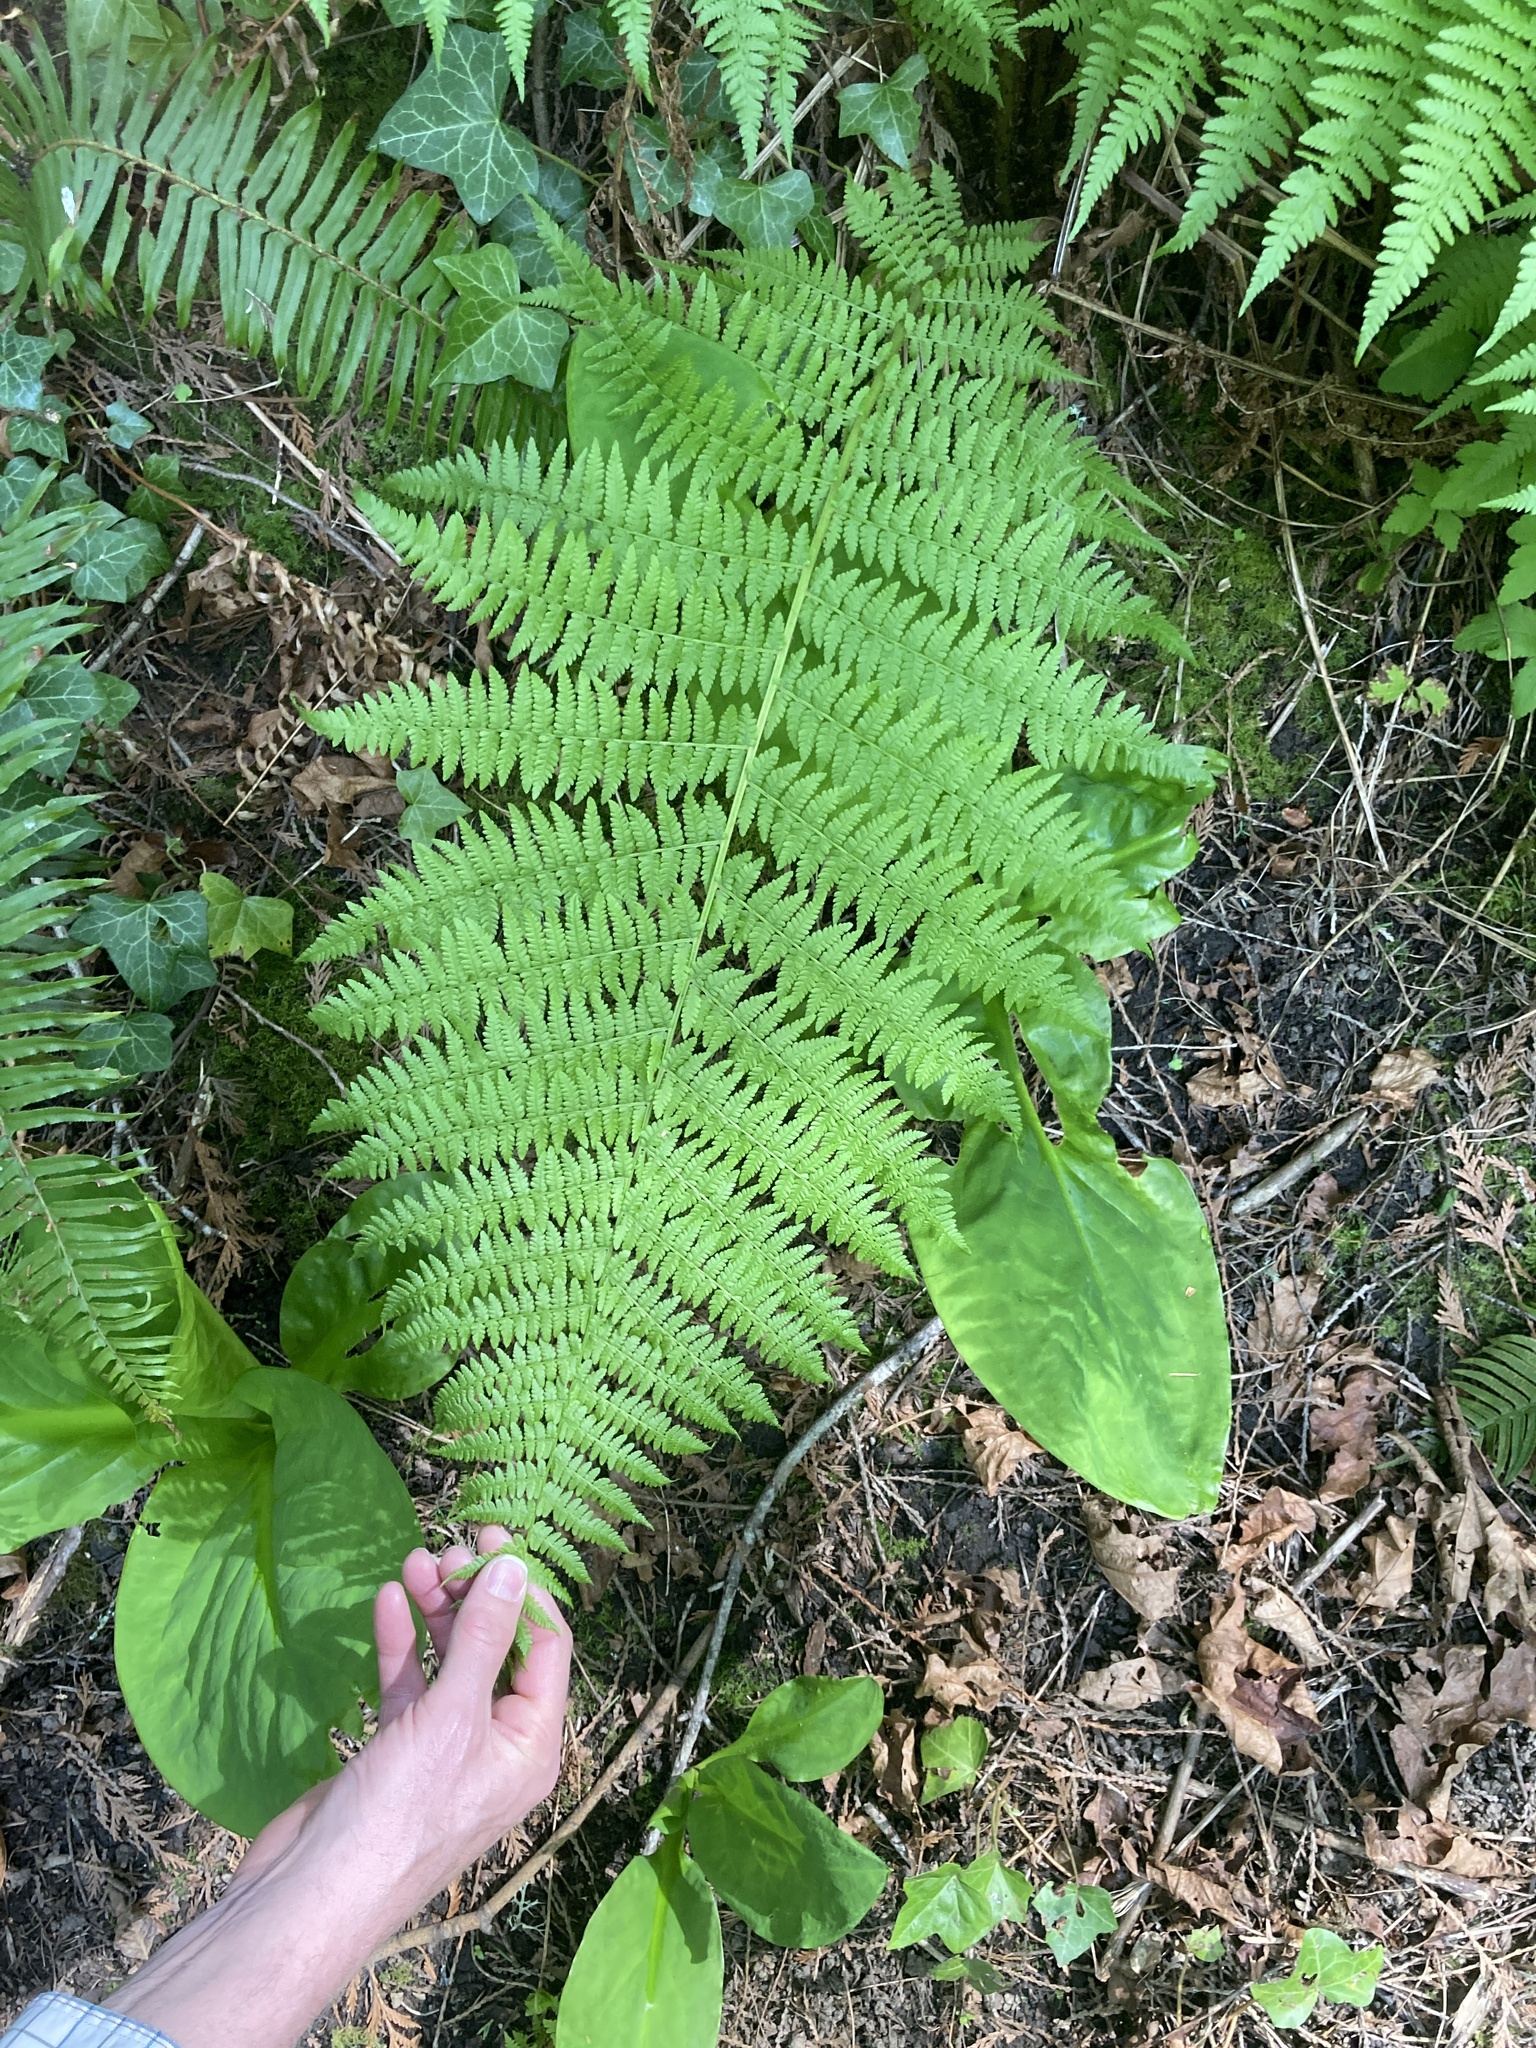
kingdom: Plantae
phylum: Tracheophyta
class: Polypodiopsida
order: Polypodiales
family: Athyriaceae
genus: Athyrium
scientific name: Athyrium filix-femina
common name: Lady fern
